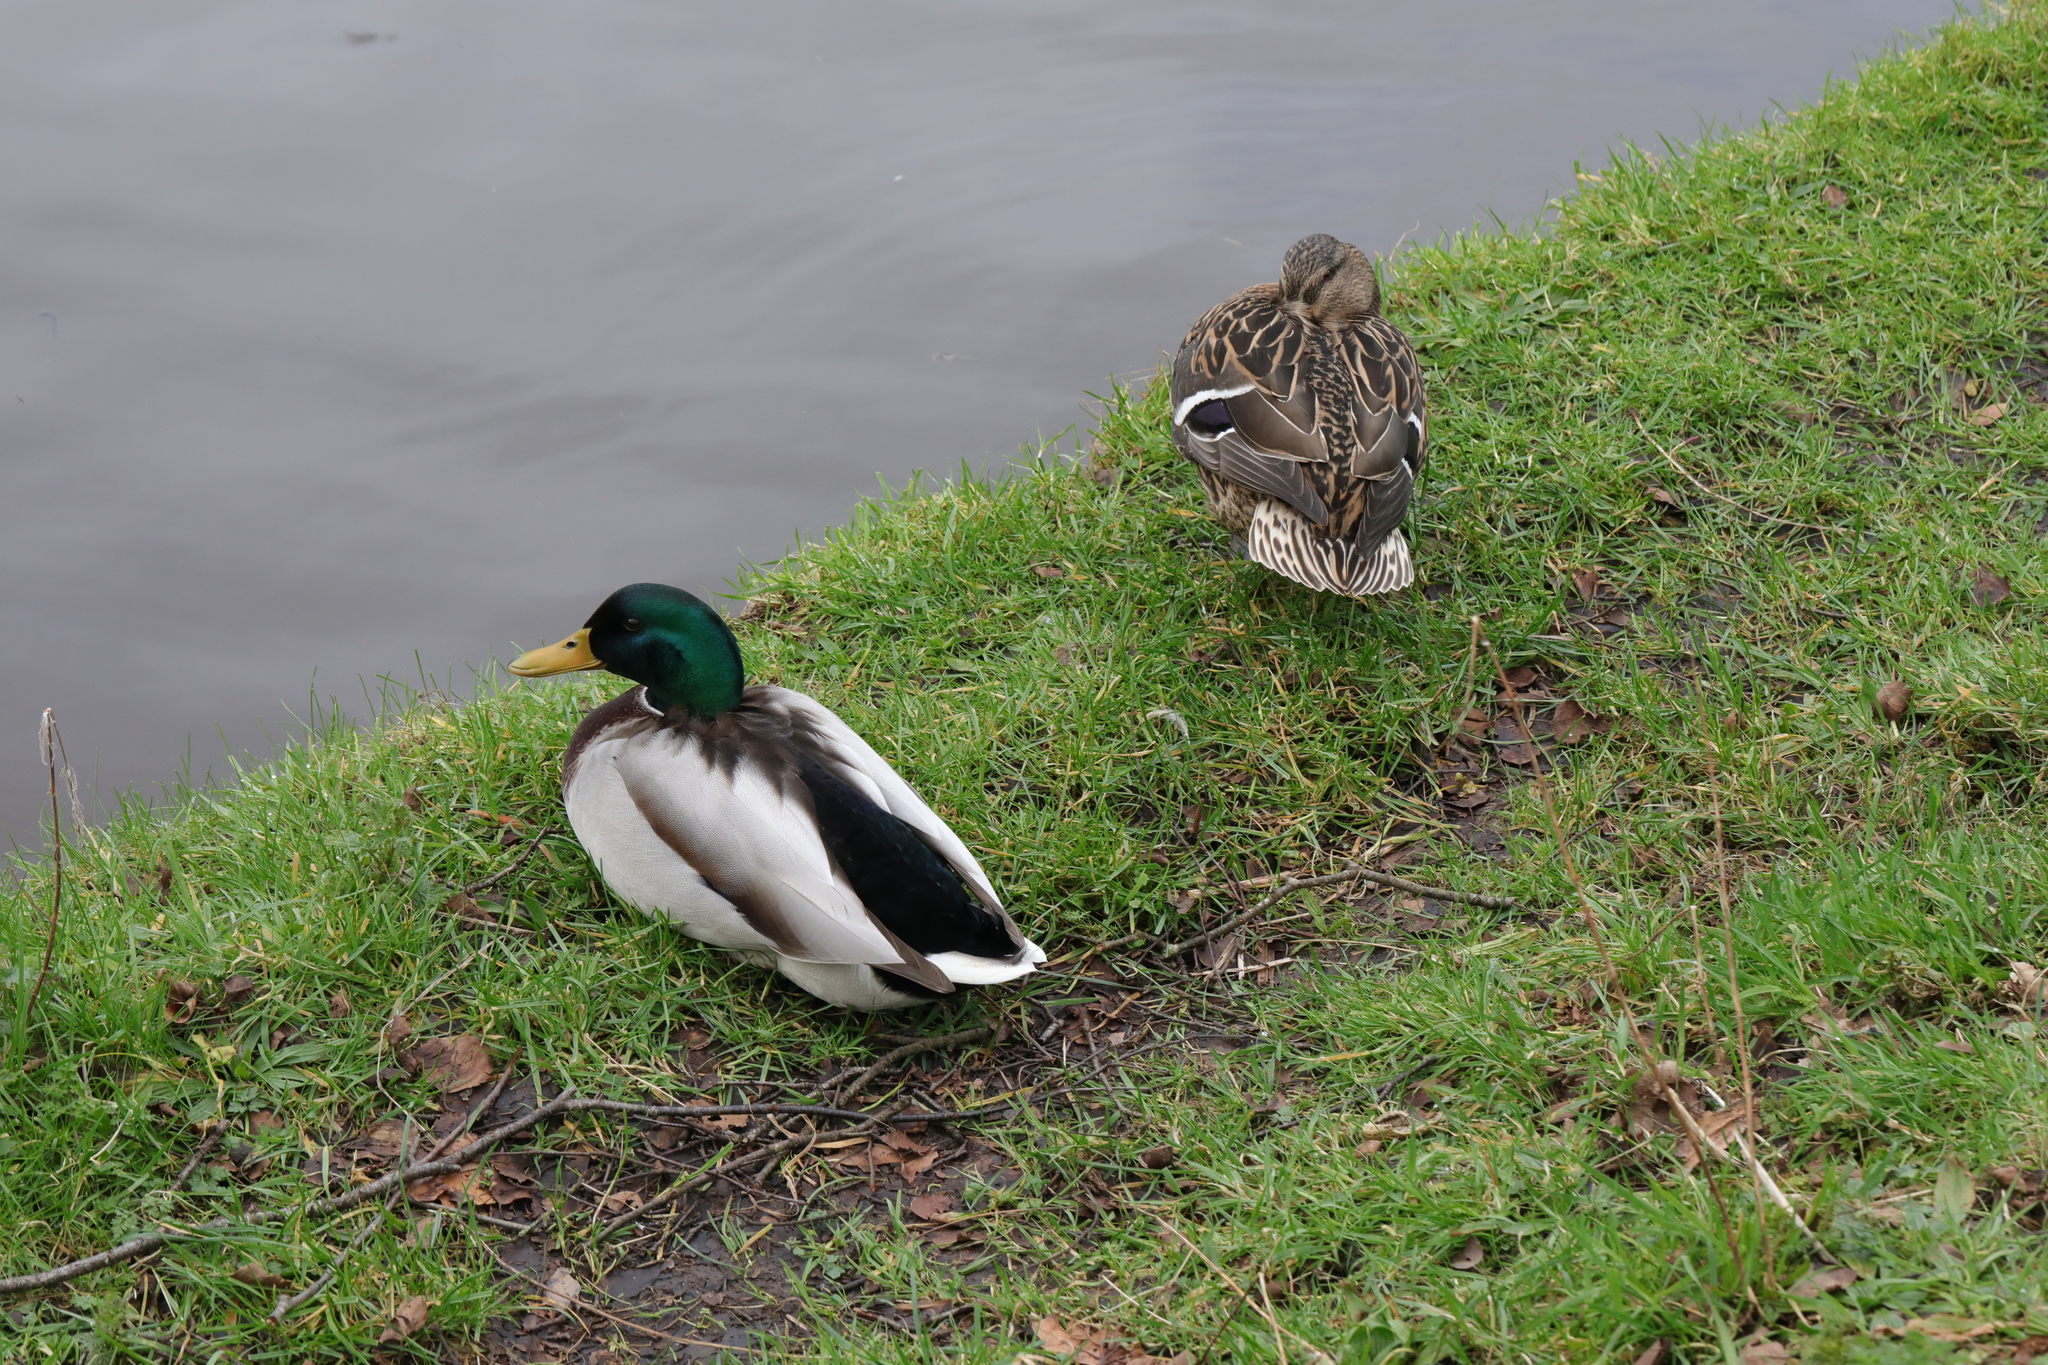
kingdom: Animalia
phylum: Chordata
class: Aves
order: Anseriformes
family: Anatidae
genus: Anas
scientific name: Anas platyrhynchos
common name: Mallard
